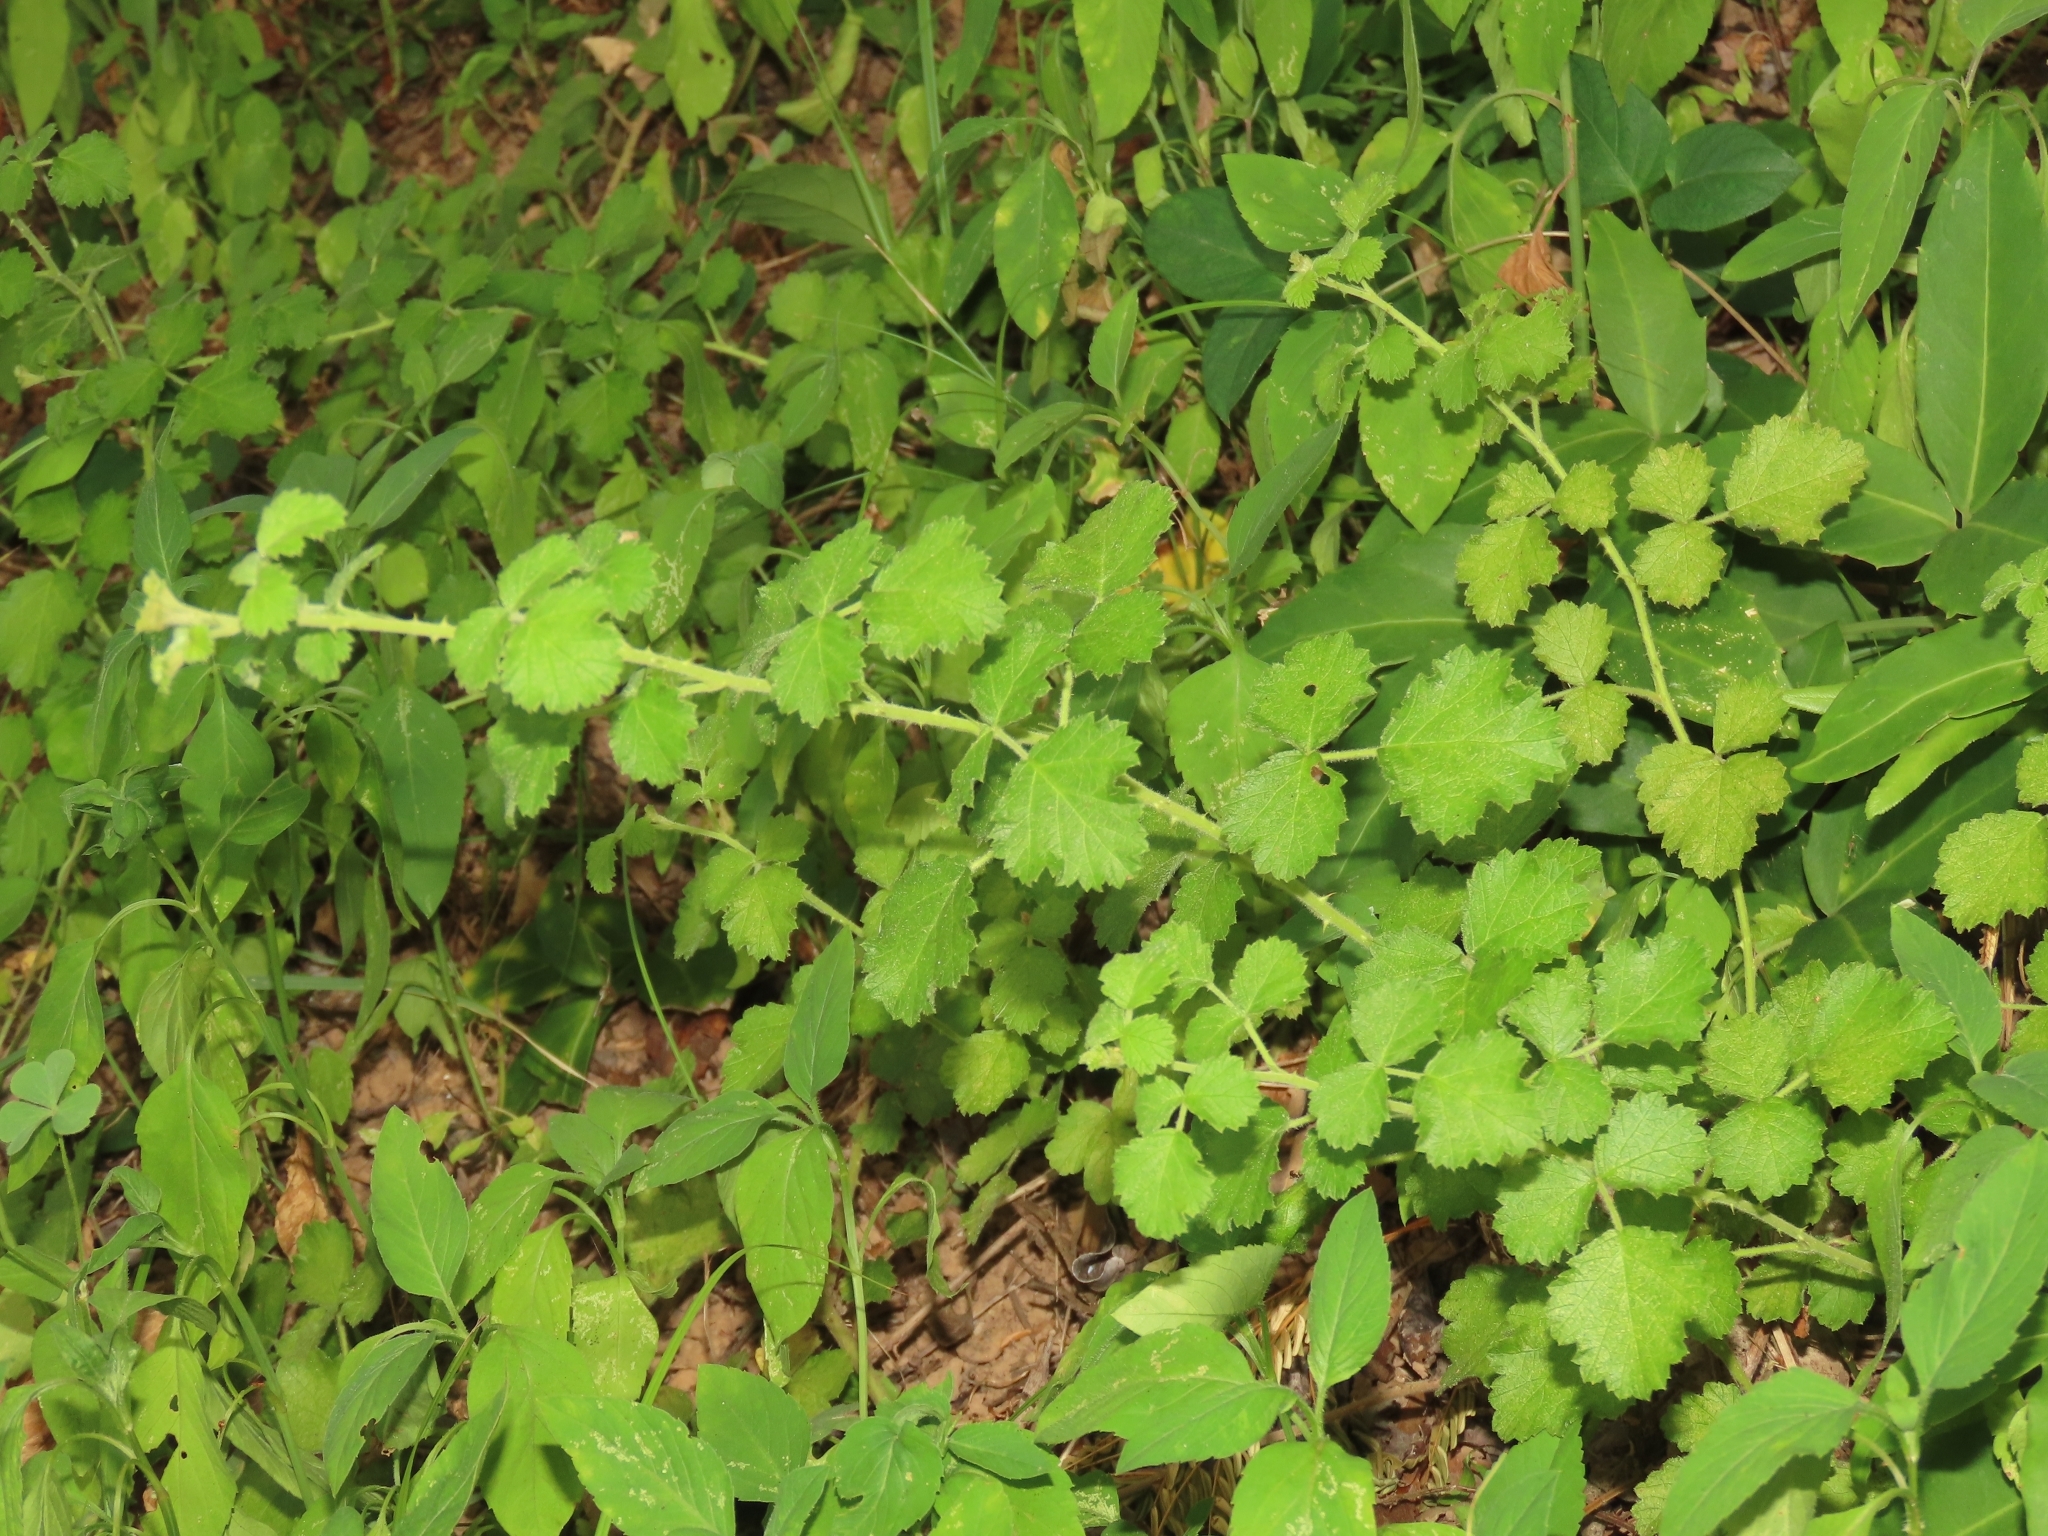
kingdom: Plantae
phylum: Tracheophyta
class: Magnoliopsida
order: Rosales
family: Rosaceae
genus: Rubus
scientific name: Rubus parvifolius
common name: Threeleaf blackberry
